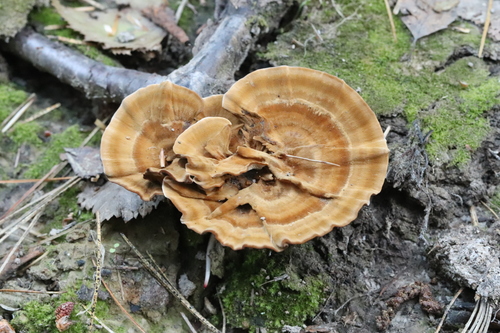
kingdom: Fungi
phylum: Basidiomycota
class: Agaricomycetes
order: Hymenochaetales
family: Hymenochaetaceae
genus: Coltricia
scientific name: Coltricia perennis
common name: Tiger's eye
